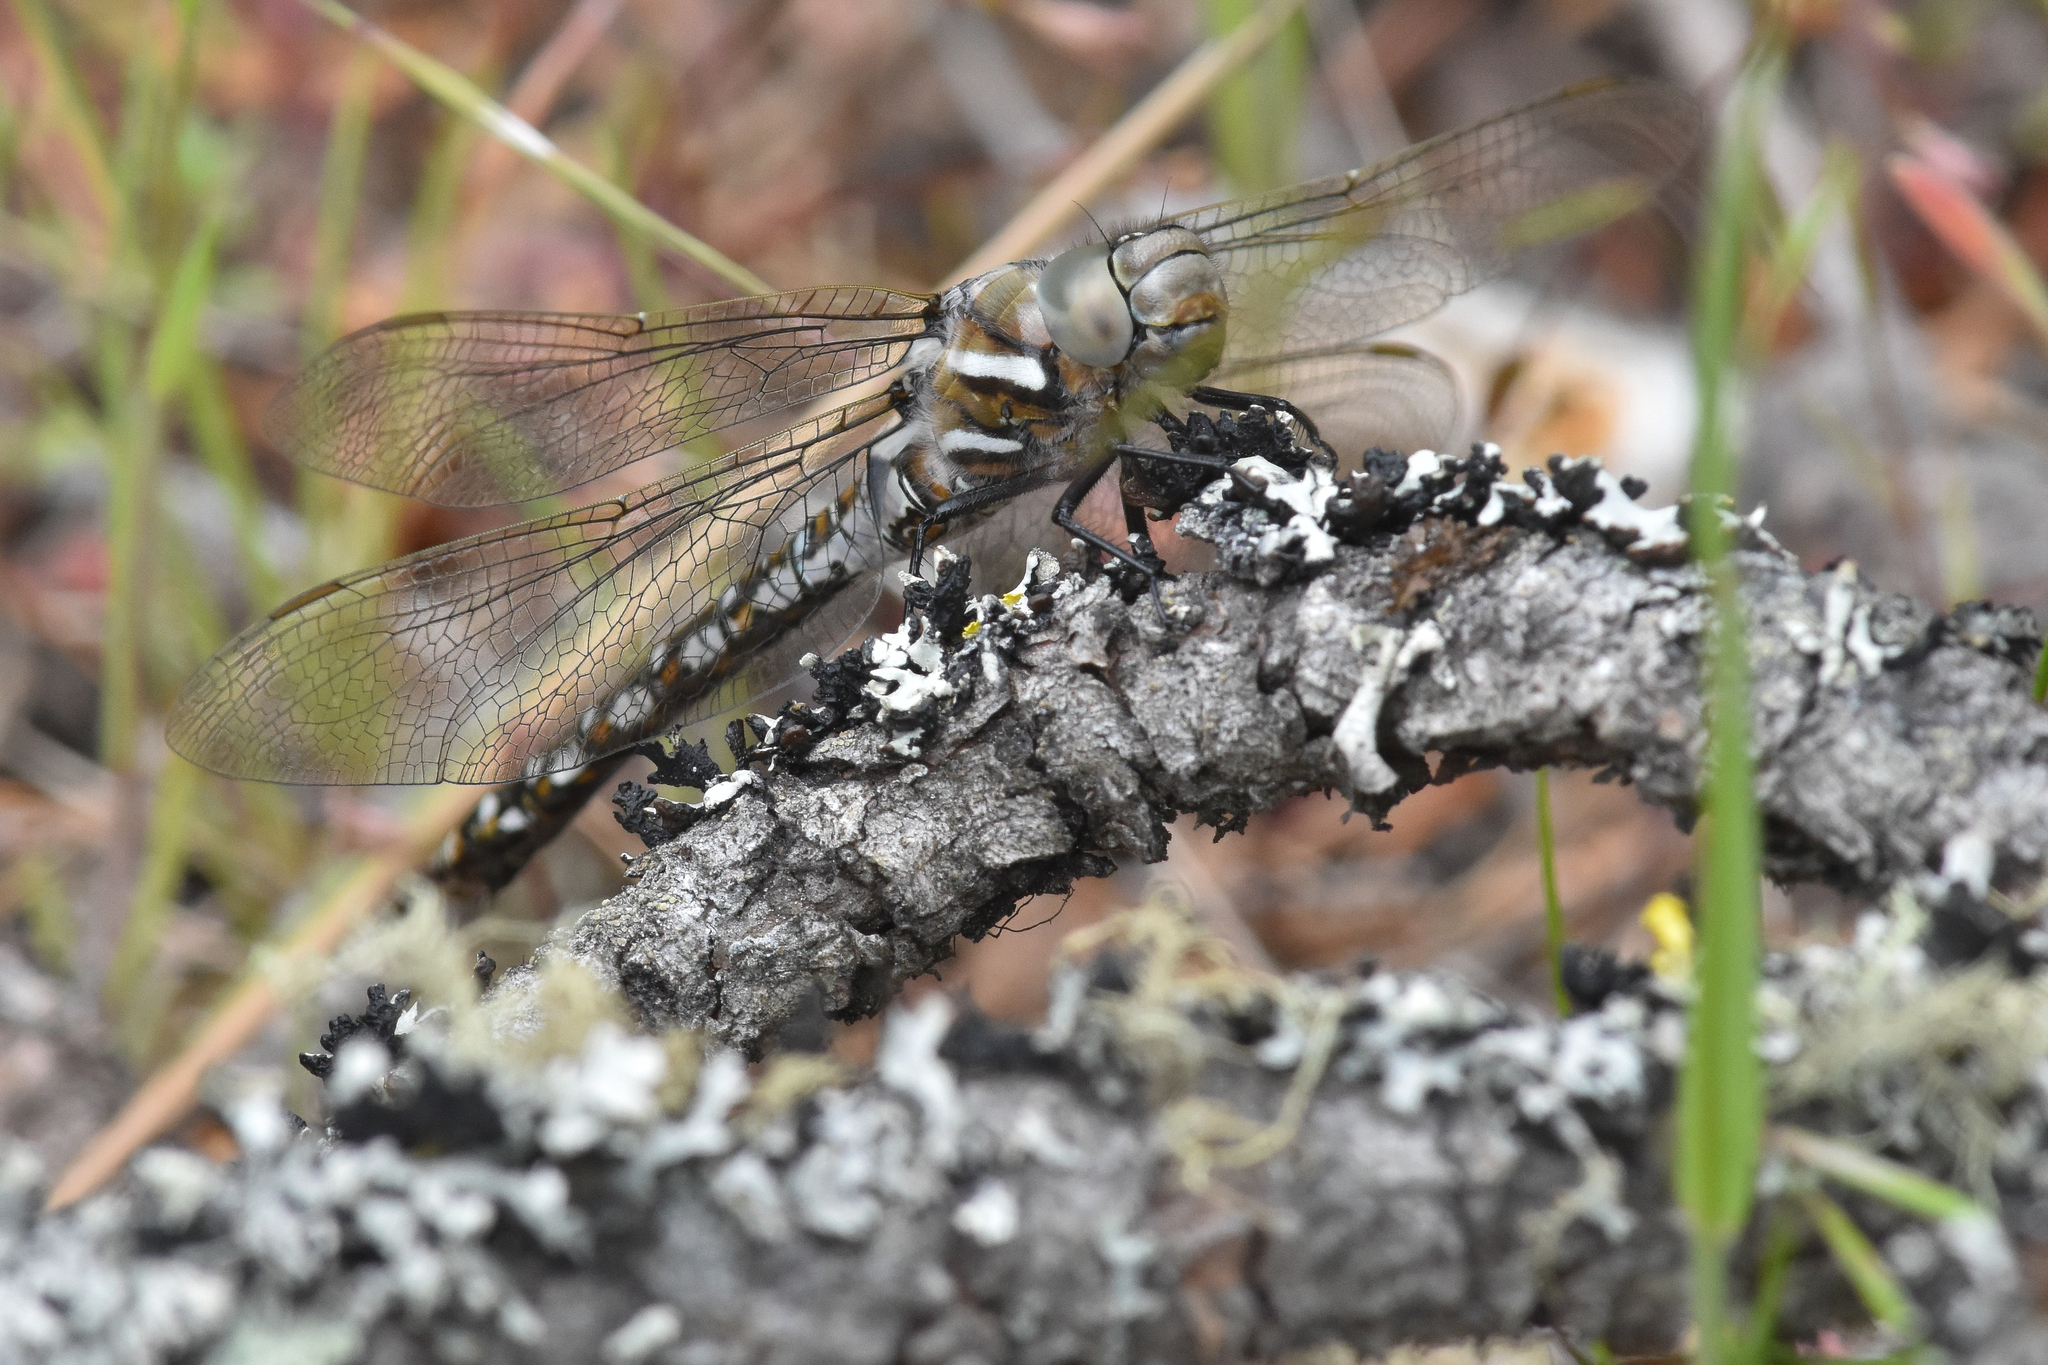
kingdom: Animalia
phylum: Arthropoda
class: Insecta
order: Odonata
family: Aeshnidae
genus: Rhionaeschna
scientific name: Rhionaeschna californica
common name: California darner
